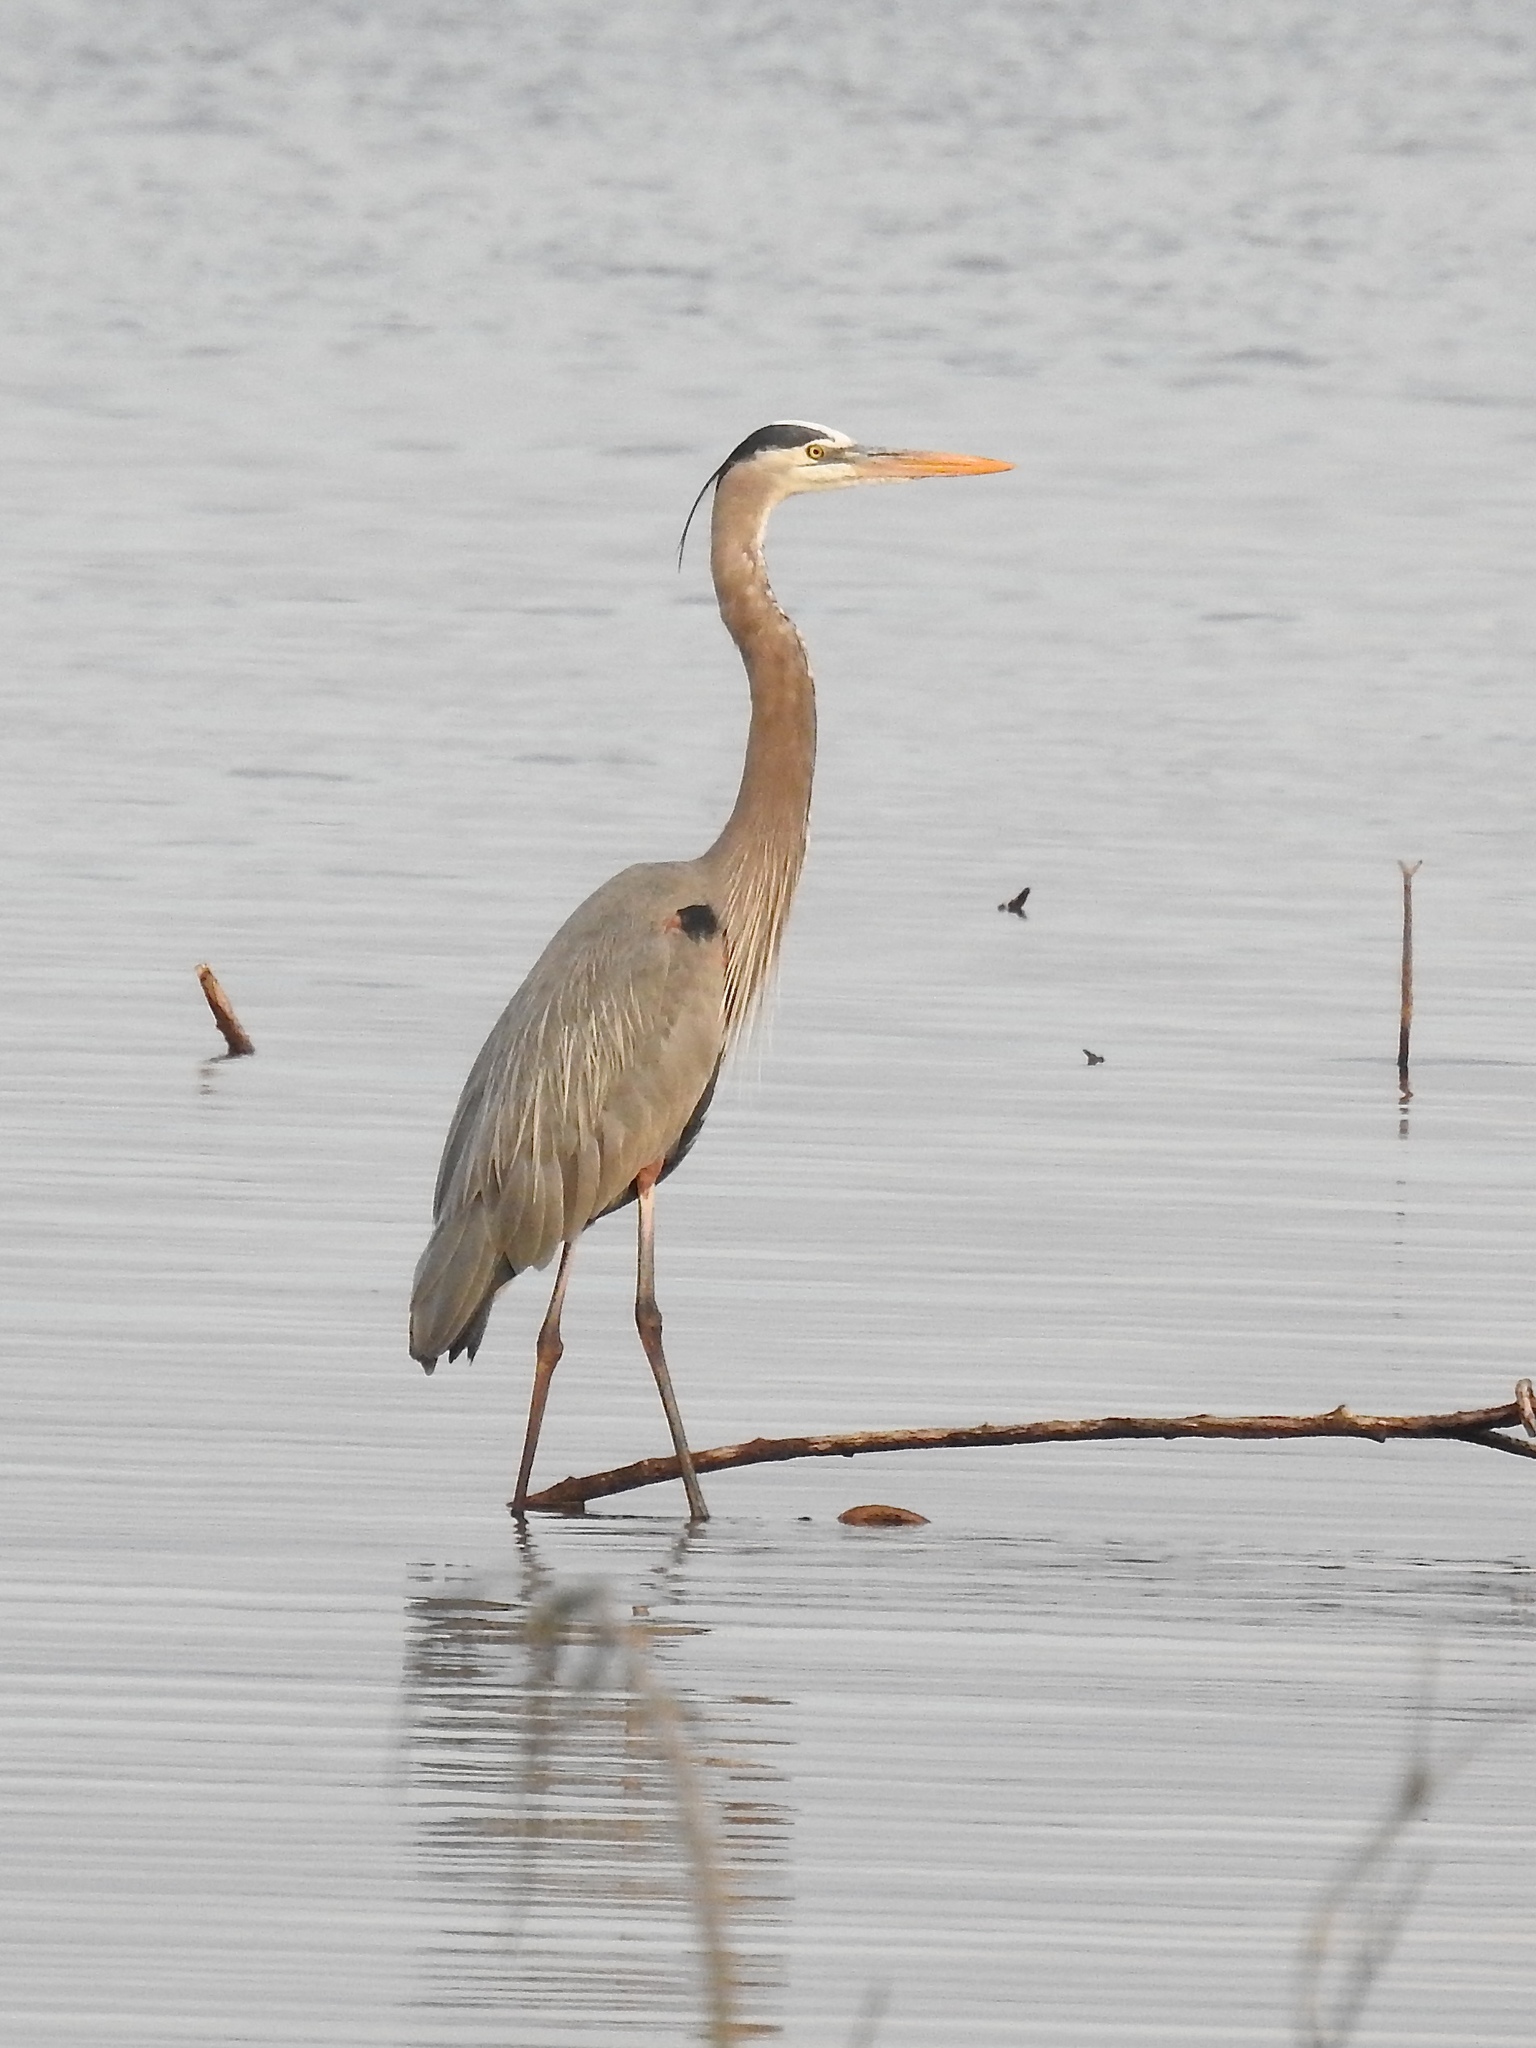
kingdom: Animalia
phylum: Chordata
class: Aves
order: Pelecaniformes
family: Ardeidae
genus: Ardea
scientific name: Ardea herodias
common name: Great blue heron
